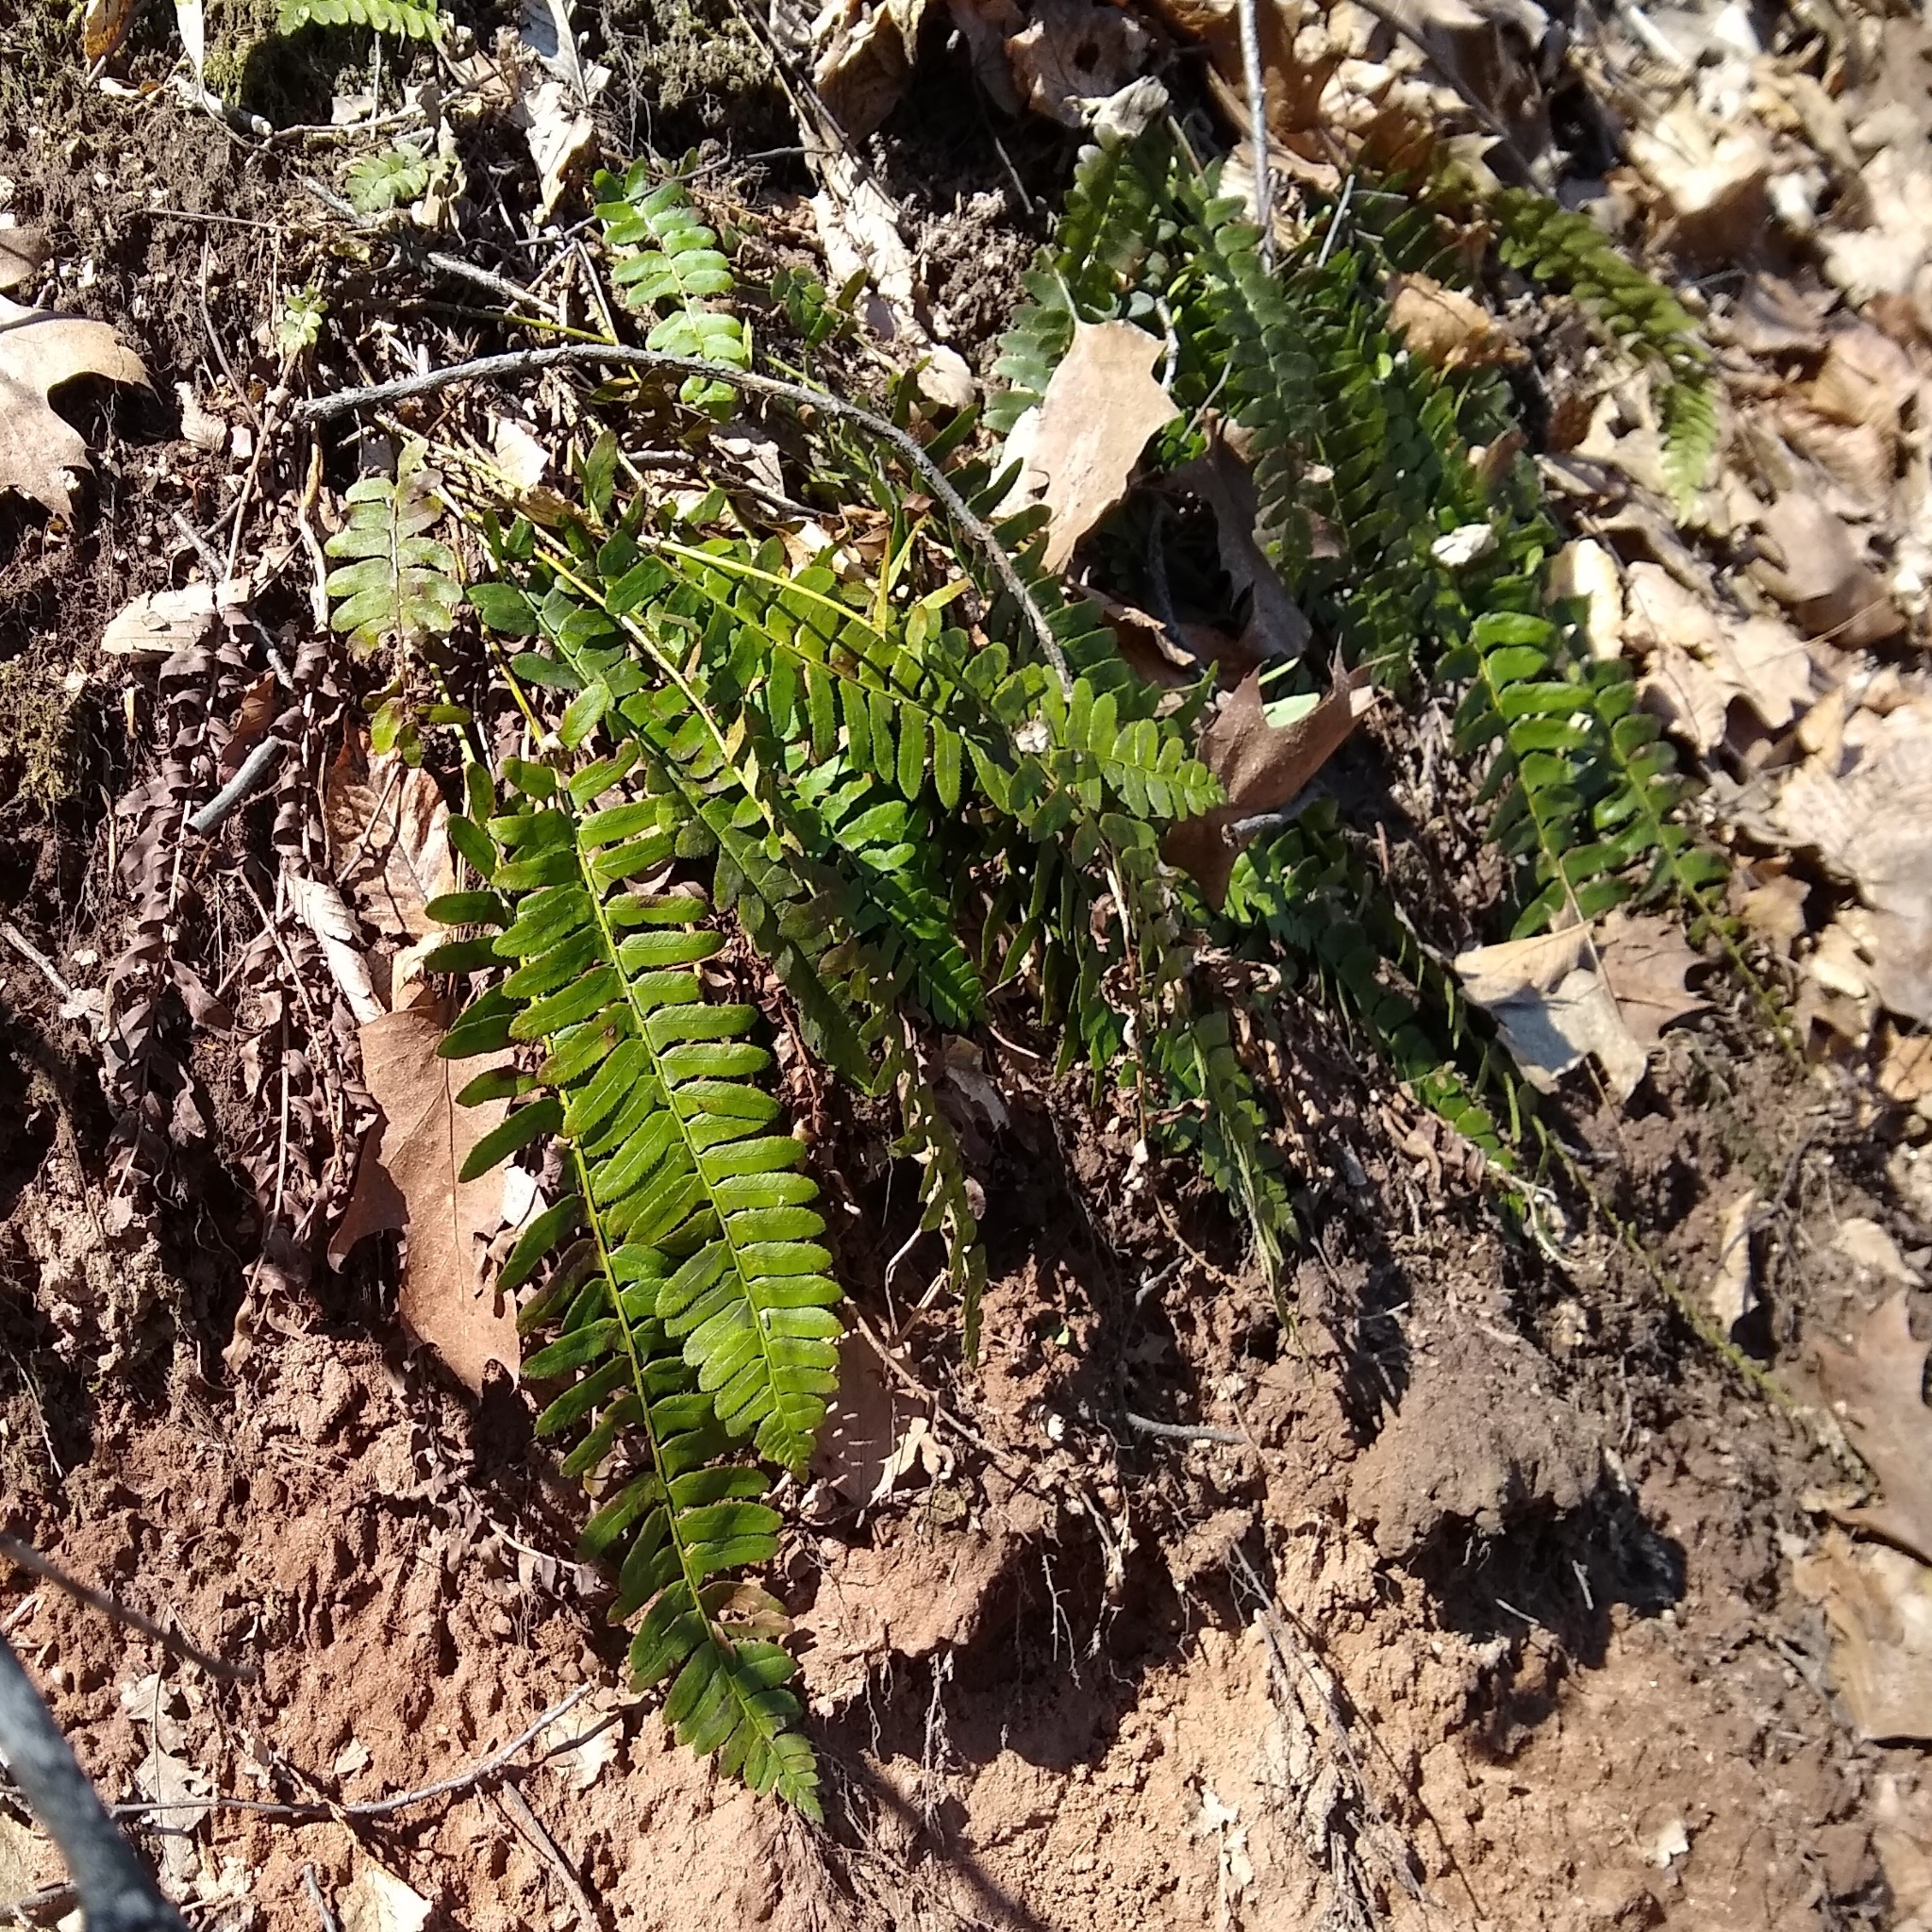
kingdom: Plantae
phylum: Tracheophyta
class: Polypodiopsida
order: Polypodiales
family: Dryopteridaceae
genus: Polystichum
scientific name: Polystichum acrostichoides
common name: Christmas fern
